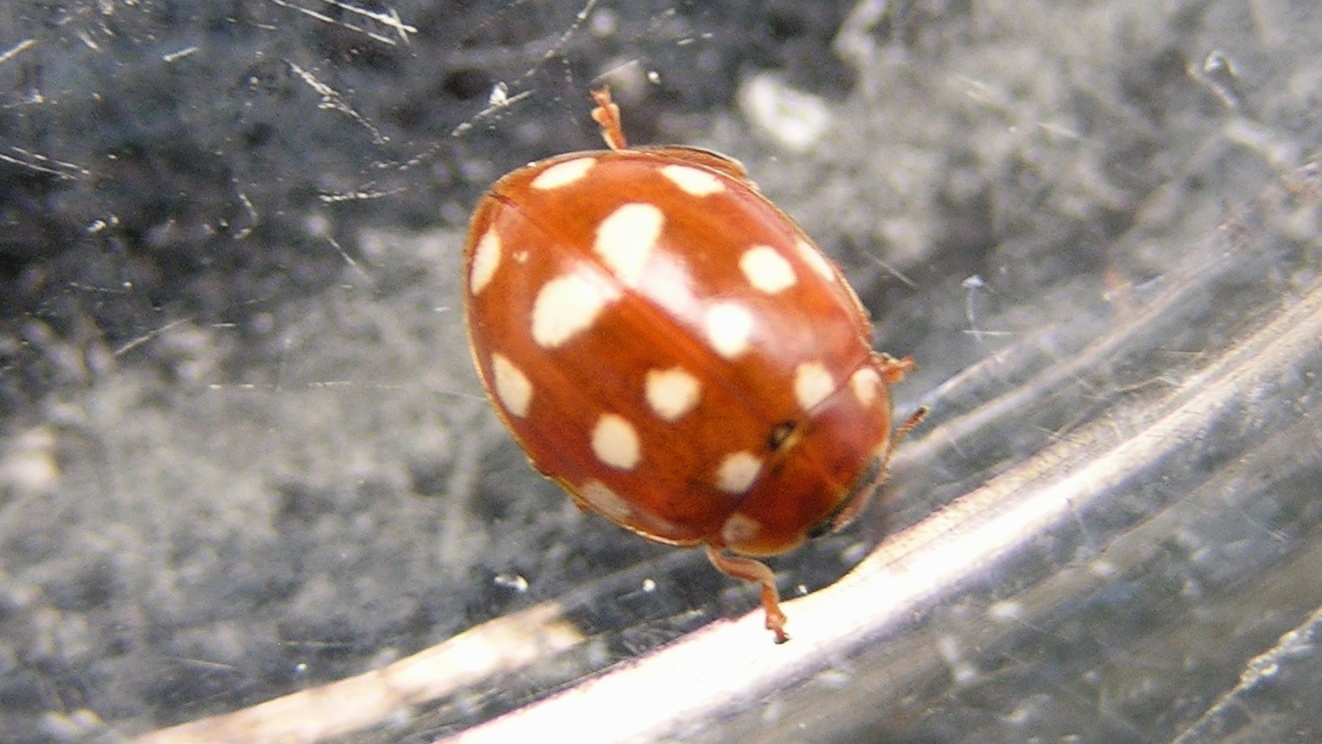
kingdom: Animalia
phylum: Arthropoda
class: Insecta
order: Coleoptera
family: Coccinellidae
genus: Calvia
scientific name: Calvia quatuordecimguttata
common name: Cream-spot ladybird
